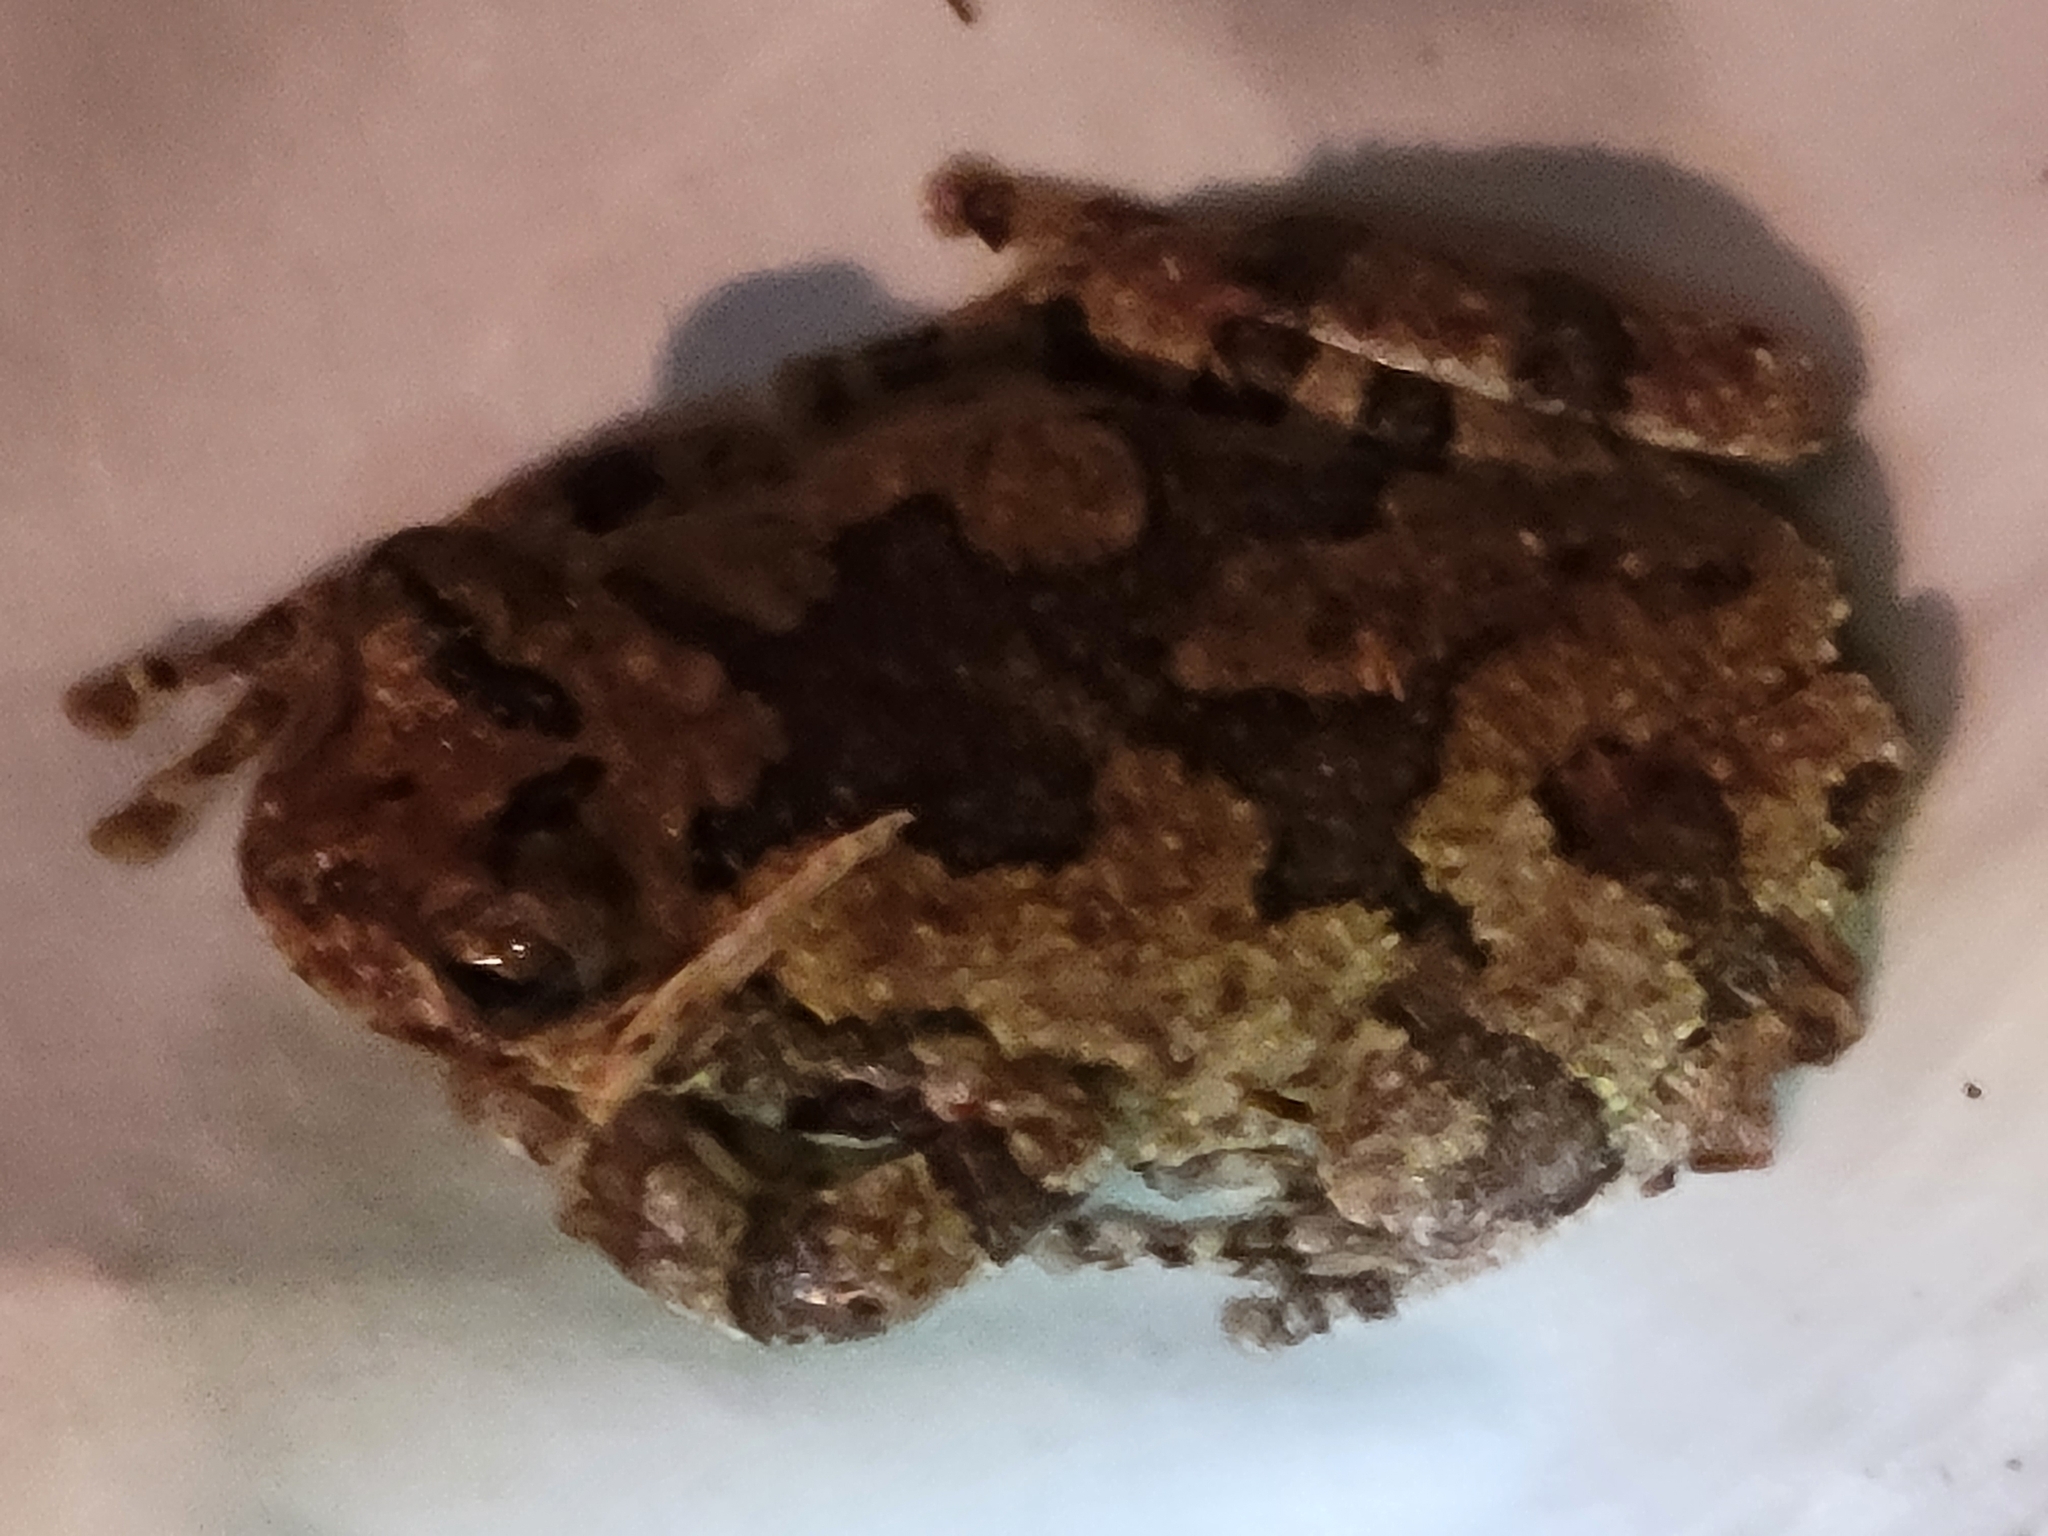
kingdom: Animalia
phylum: Chordata
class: Amphibia
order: Anura
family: Hylidae
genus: Dryophytes
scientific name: Dryophytes chrysoscelis
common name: Cope's gray treefrog
